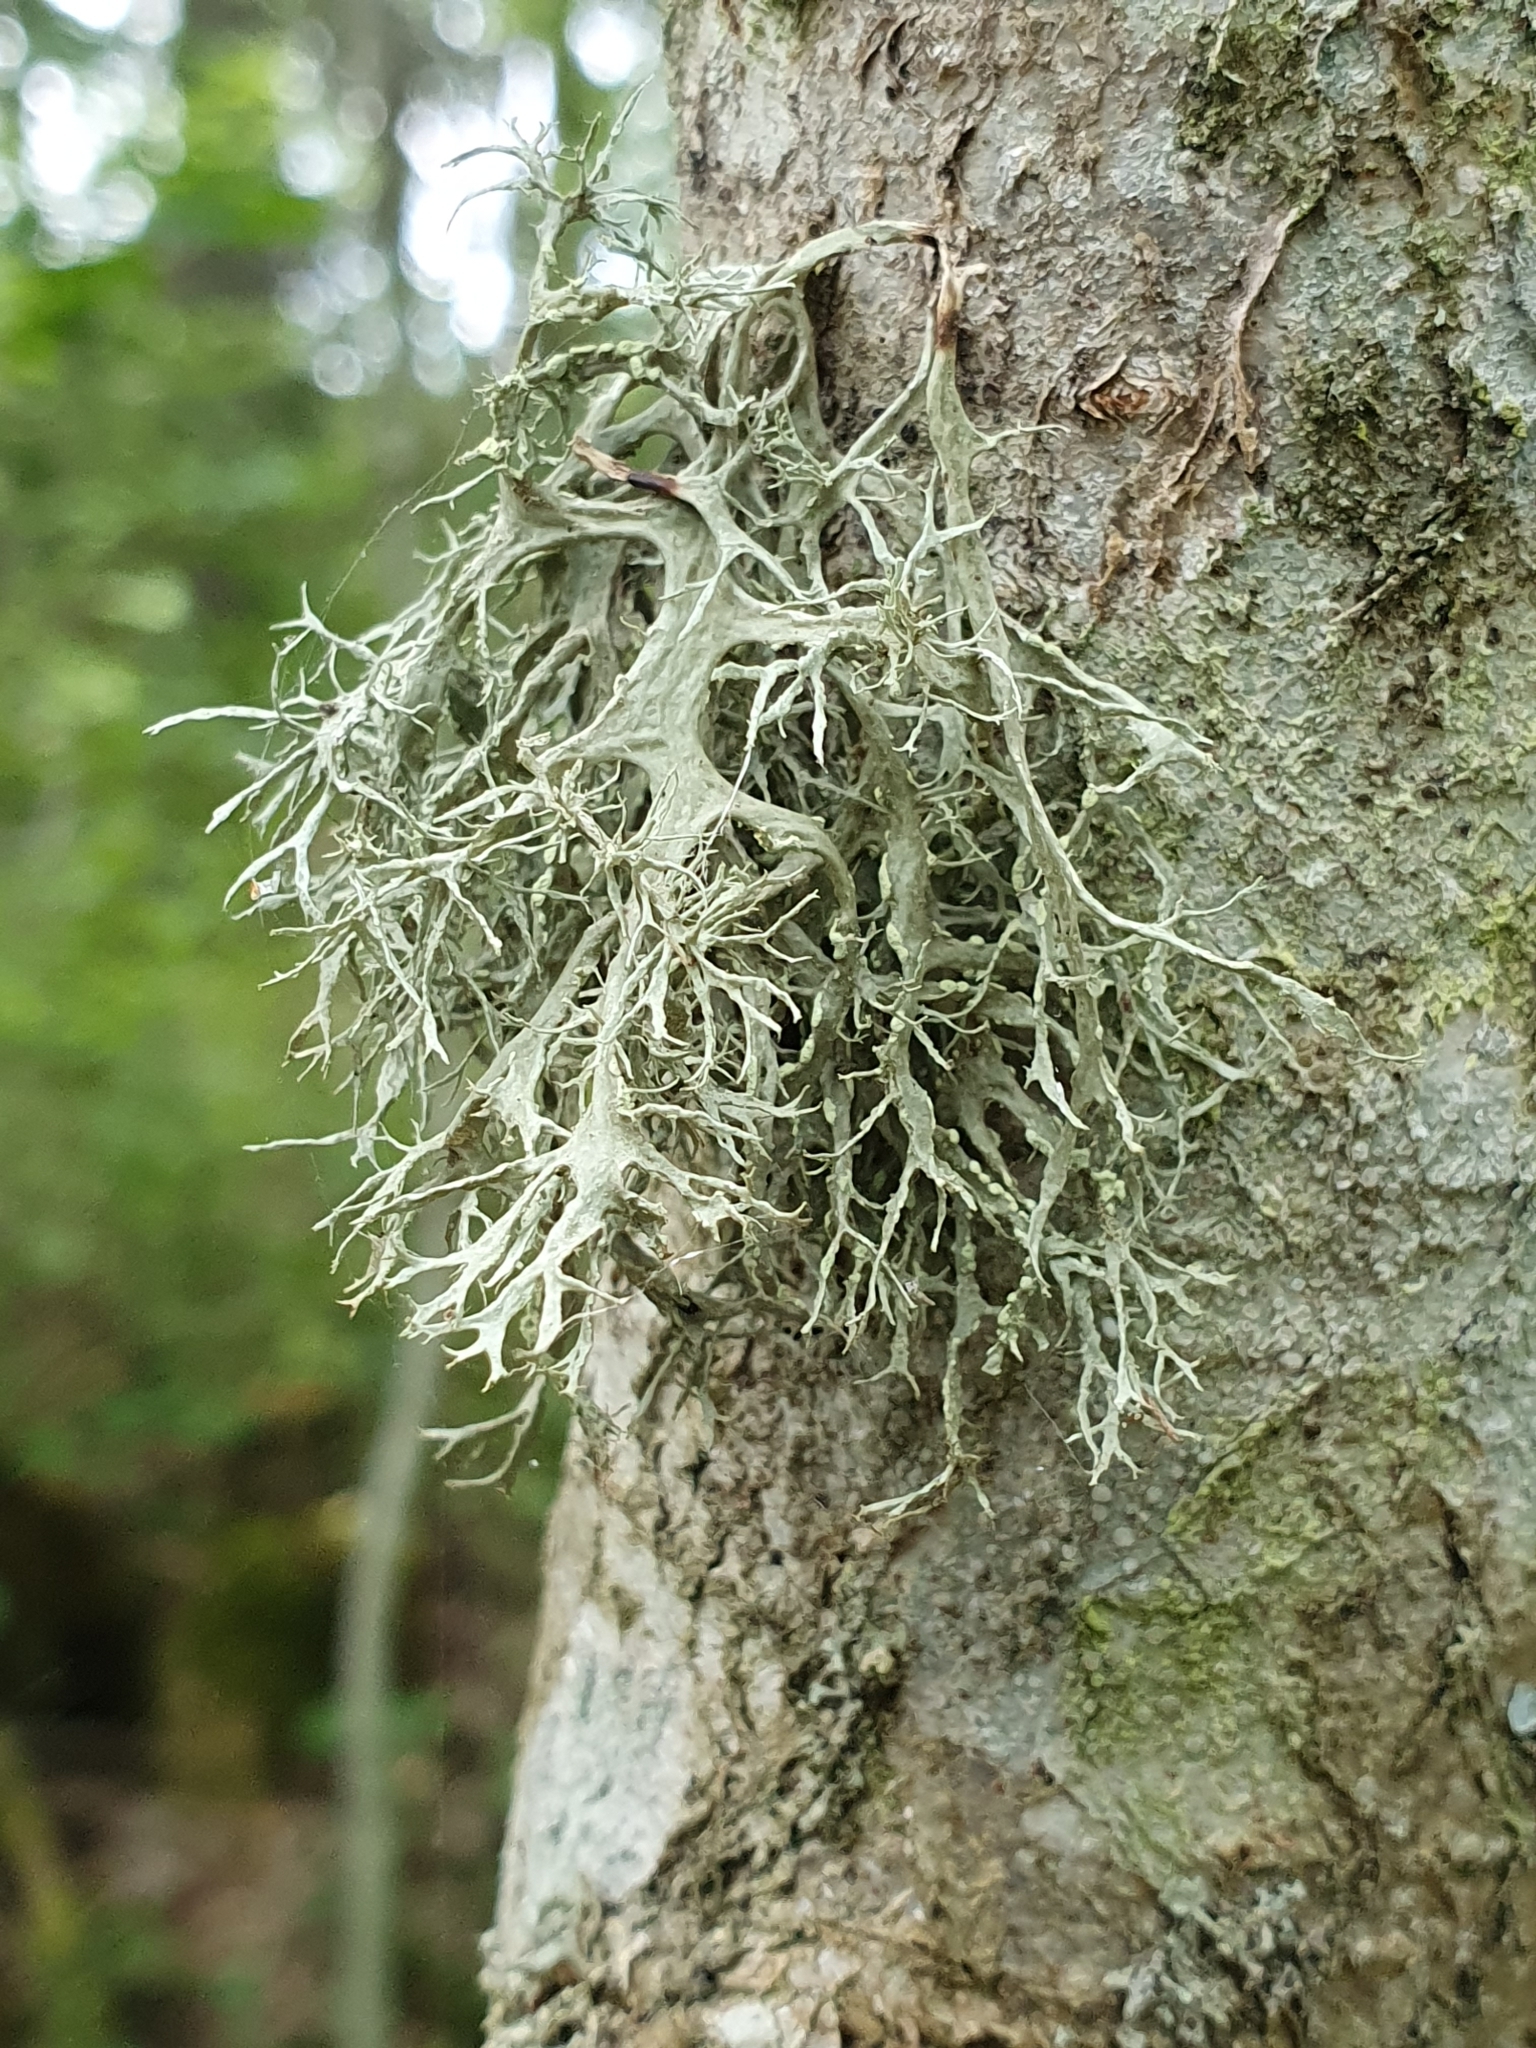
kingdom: Fungi
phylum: Ascomycota
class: Lecanoromycetes
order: Lecanorales
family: Ramalinaceae
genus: Ramalina
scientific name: Ramalina farinacea
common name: Farinose cartilage lichen
